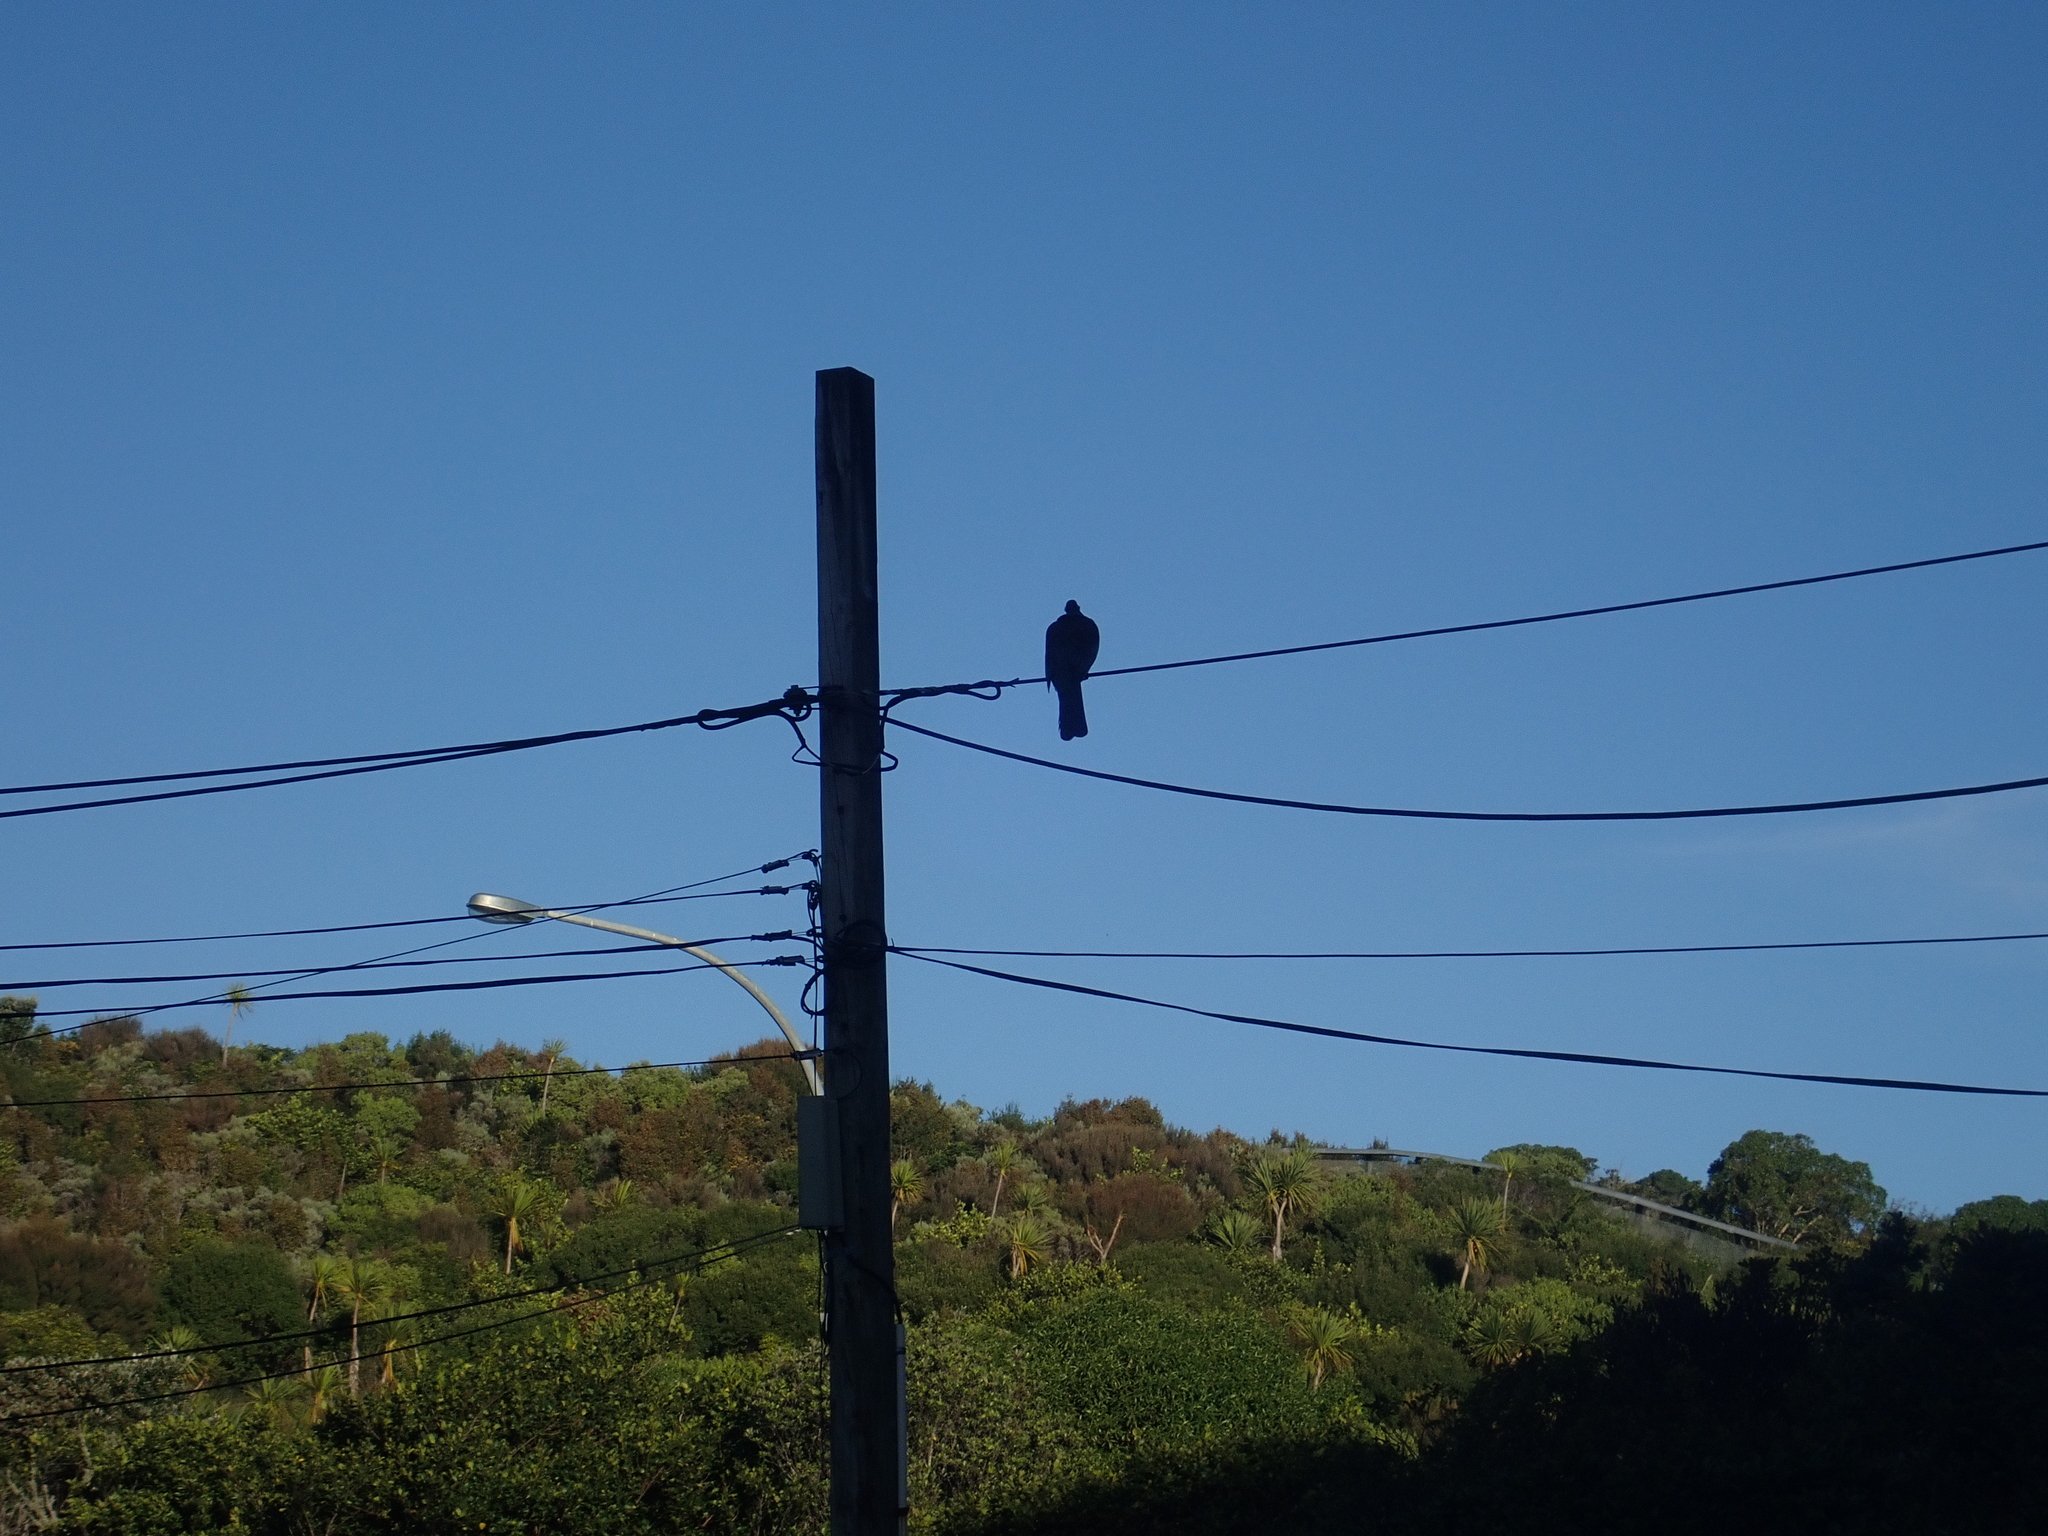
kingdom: Animalia
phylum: Chordata
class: Aves
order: Columbiformes
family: Columbidae
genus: Hemiphaga
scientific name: Hemiphaga novaeseelandiae
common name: New zealand pigeon
